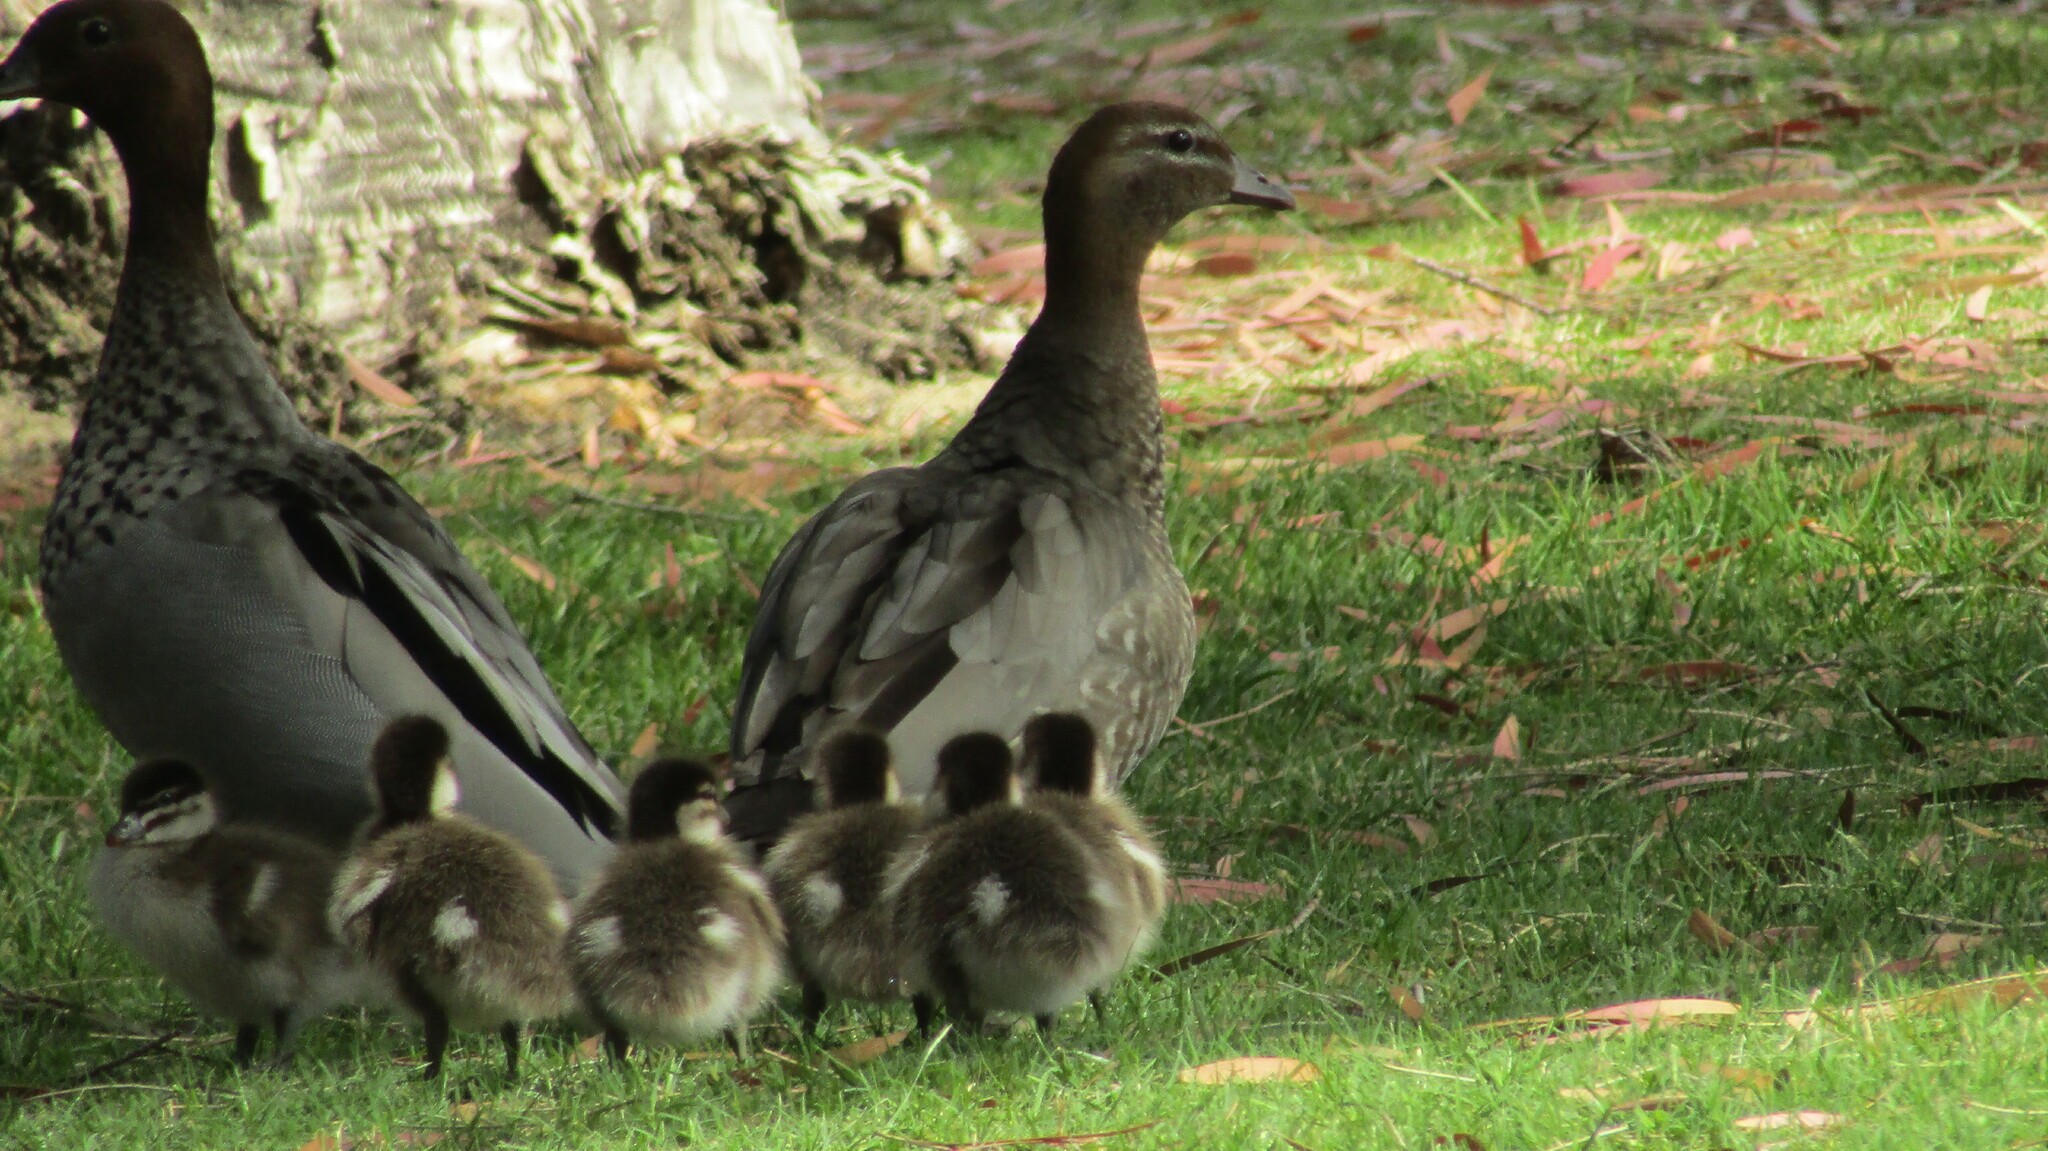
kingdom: Animalia
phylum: Chordata
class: Aves
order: Anseriformes
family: Anatidae
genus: Chenonetta
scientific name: Chenonetta jubata
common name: Maned duck
